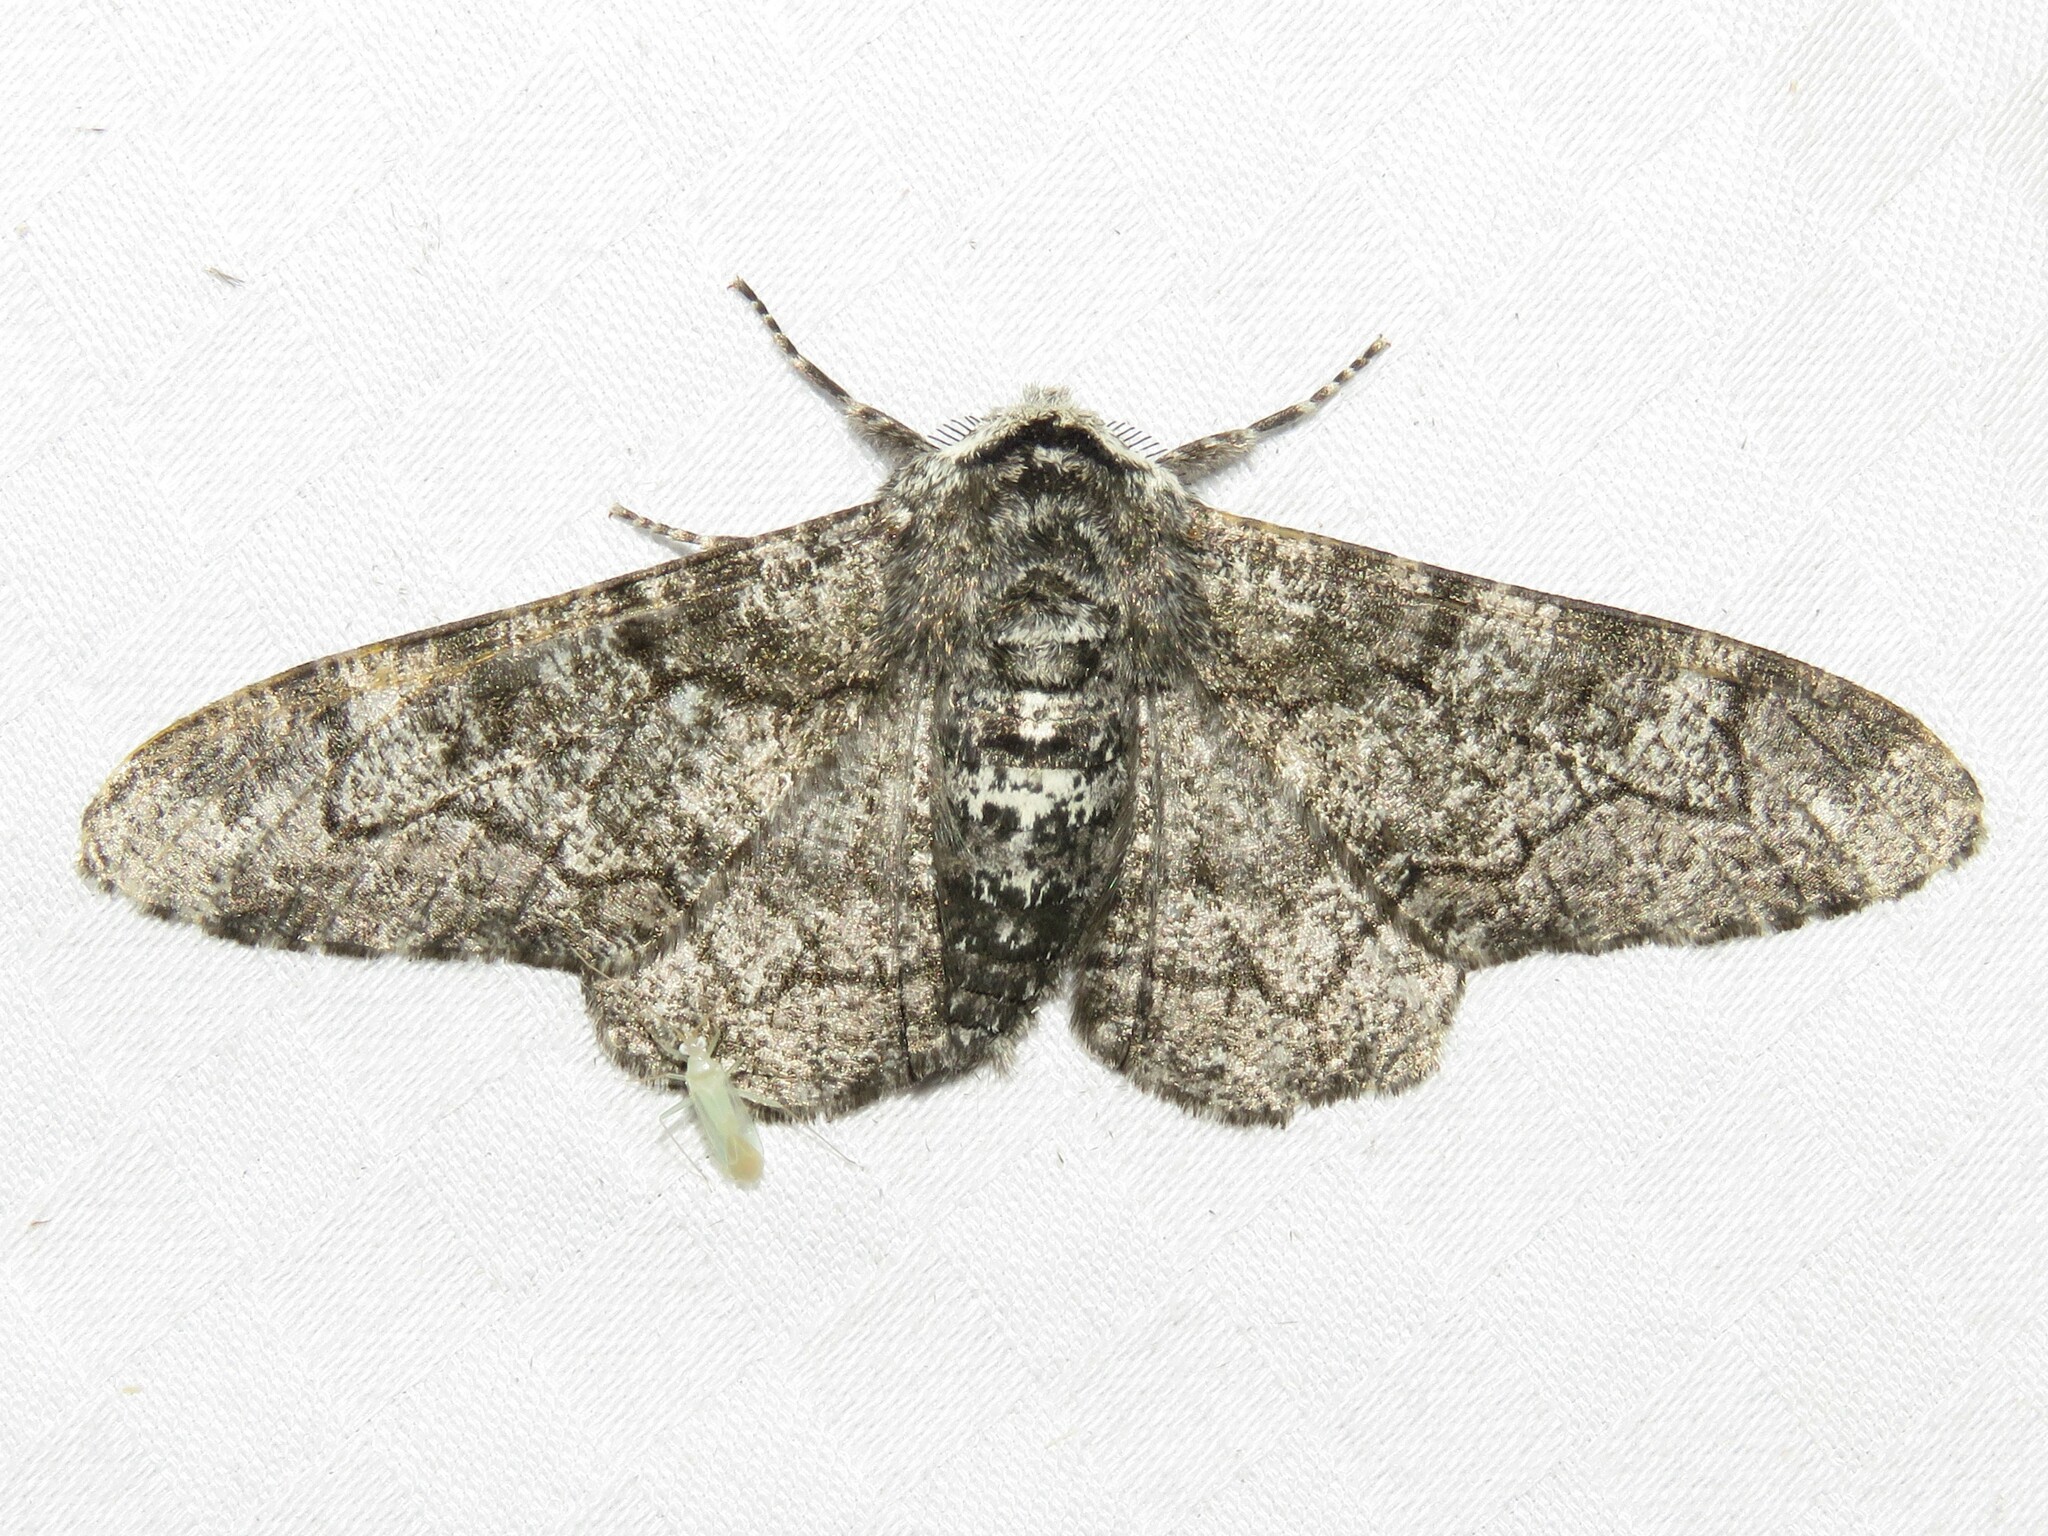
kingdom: Animalia
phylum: Arthropoda
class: Insecta
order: Lepidoptera
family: Geometridae
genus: Biston
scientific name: Biston betularia
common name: Peppered moth
